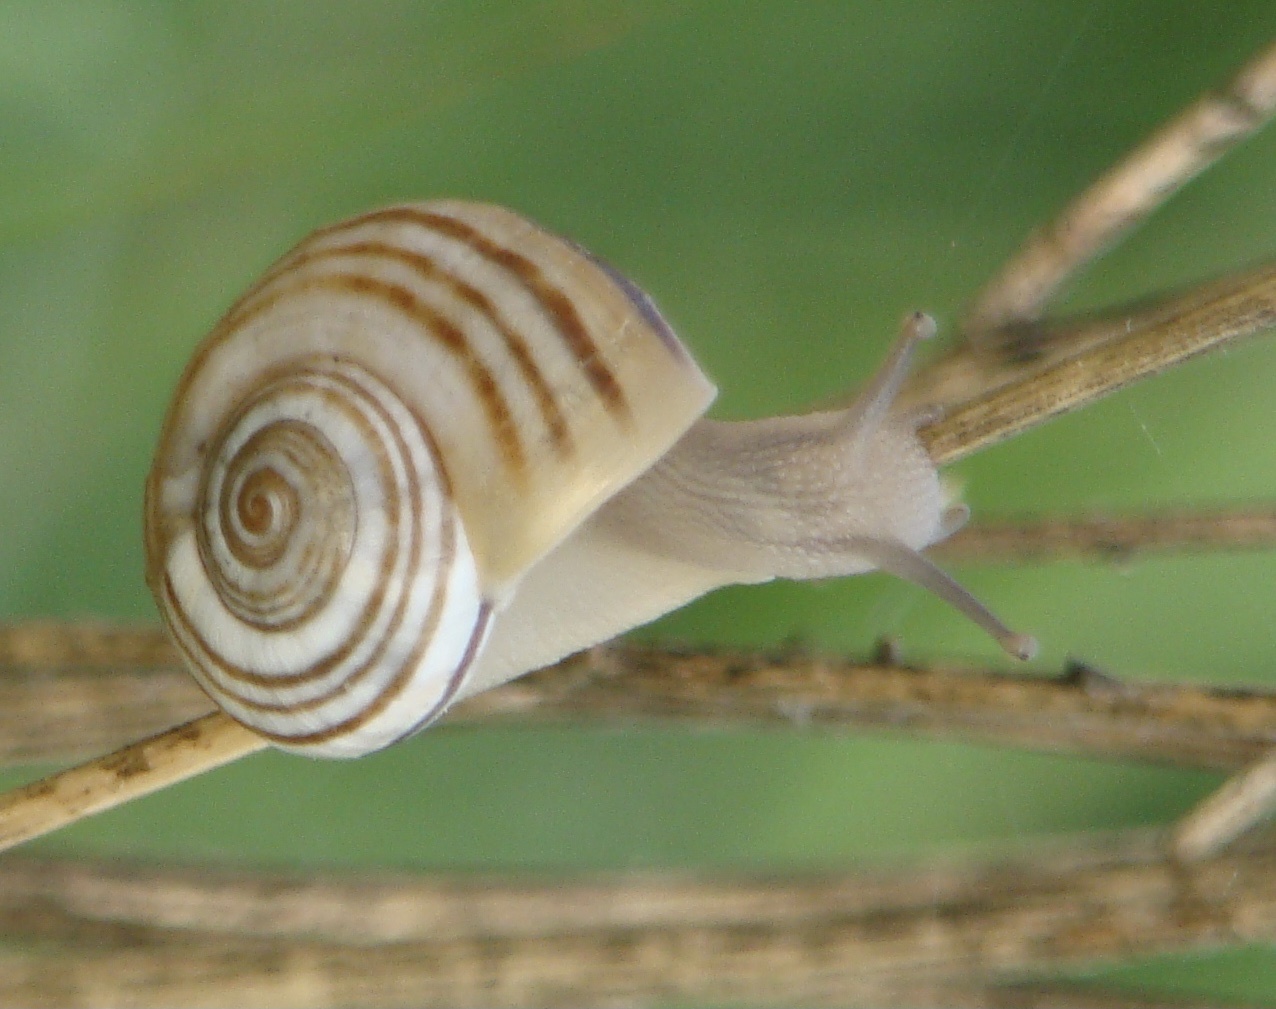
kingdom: Animalia
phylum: Mollusca
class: Gastropoda
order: Stylommatophora
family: Helicidae
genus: Pseudotachea
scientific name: Pseudotachea splendida
